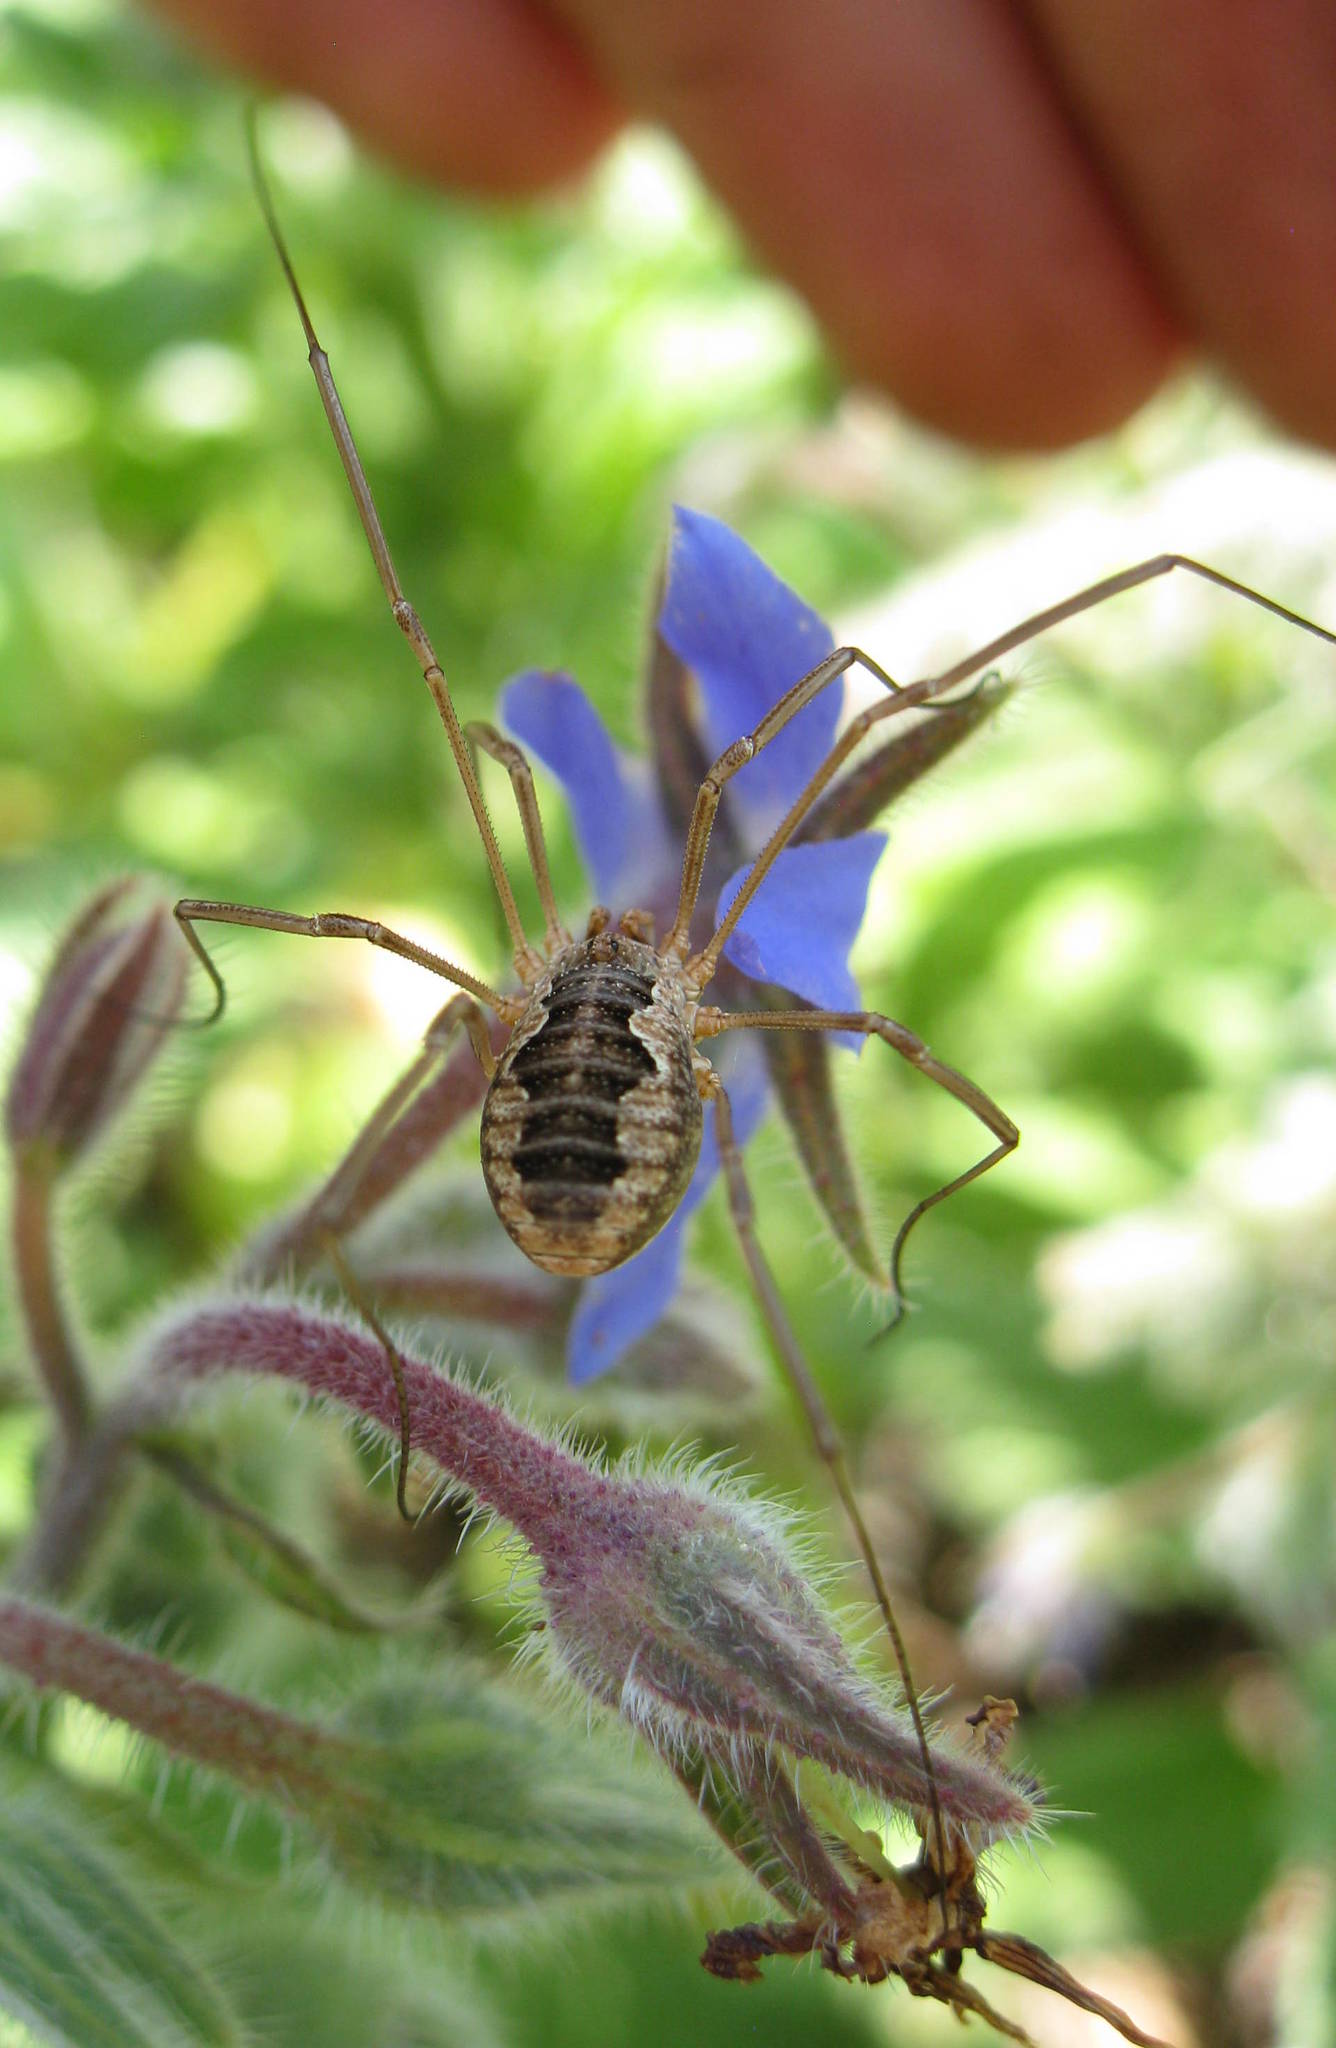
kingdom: Animalia
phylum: Arthropoda
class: Arachnida
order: Opiliones
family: Phalangiidae
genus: Phalangium
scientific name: Phalangium opilio
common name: Daddy longleg
